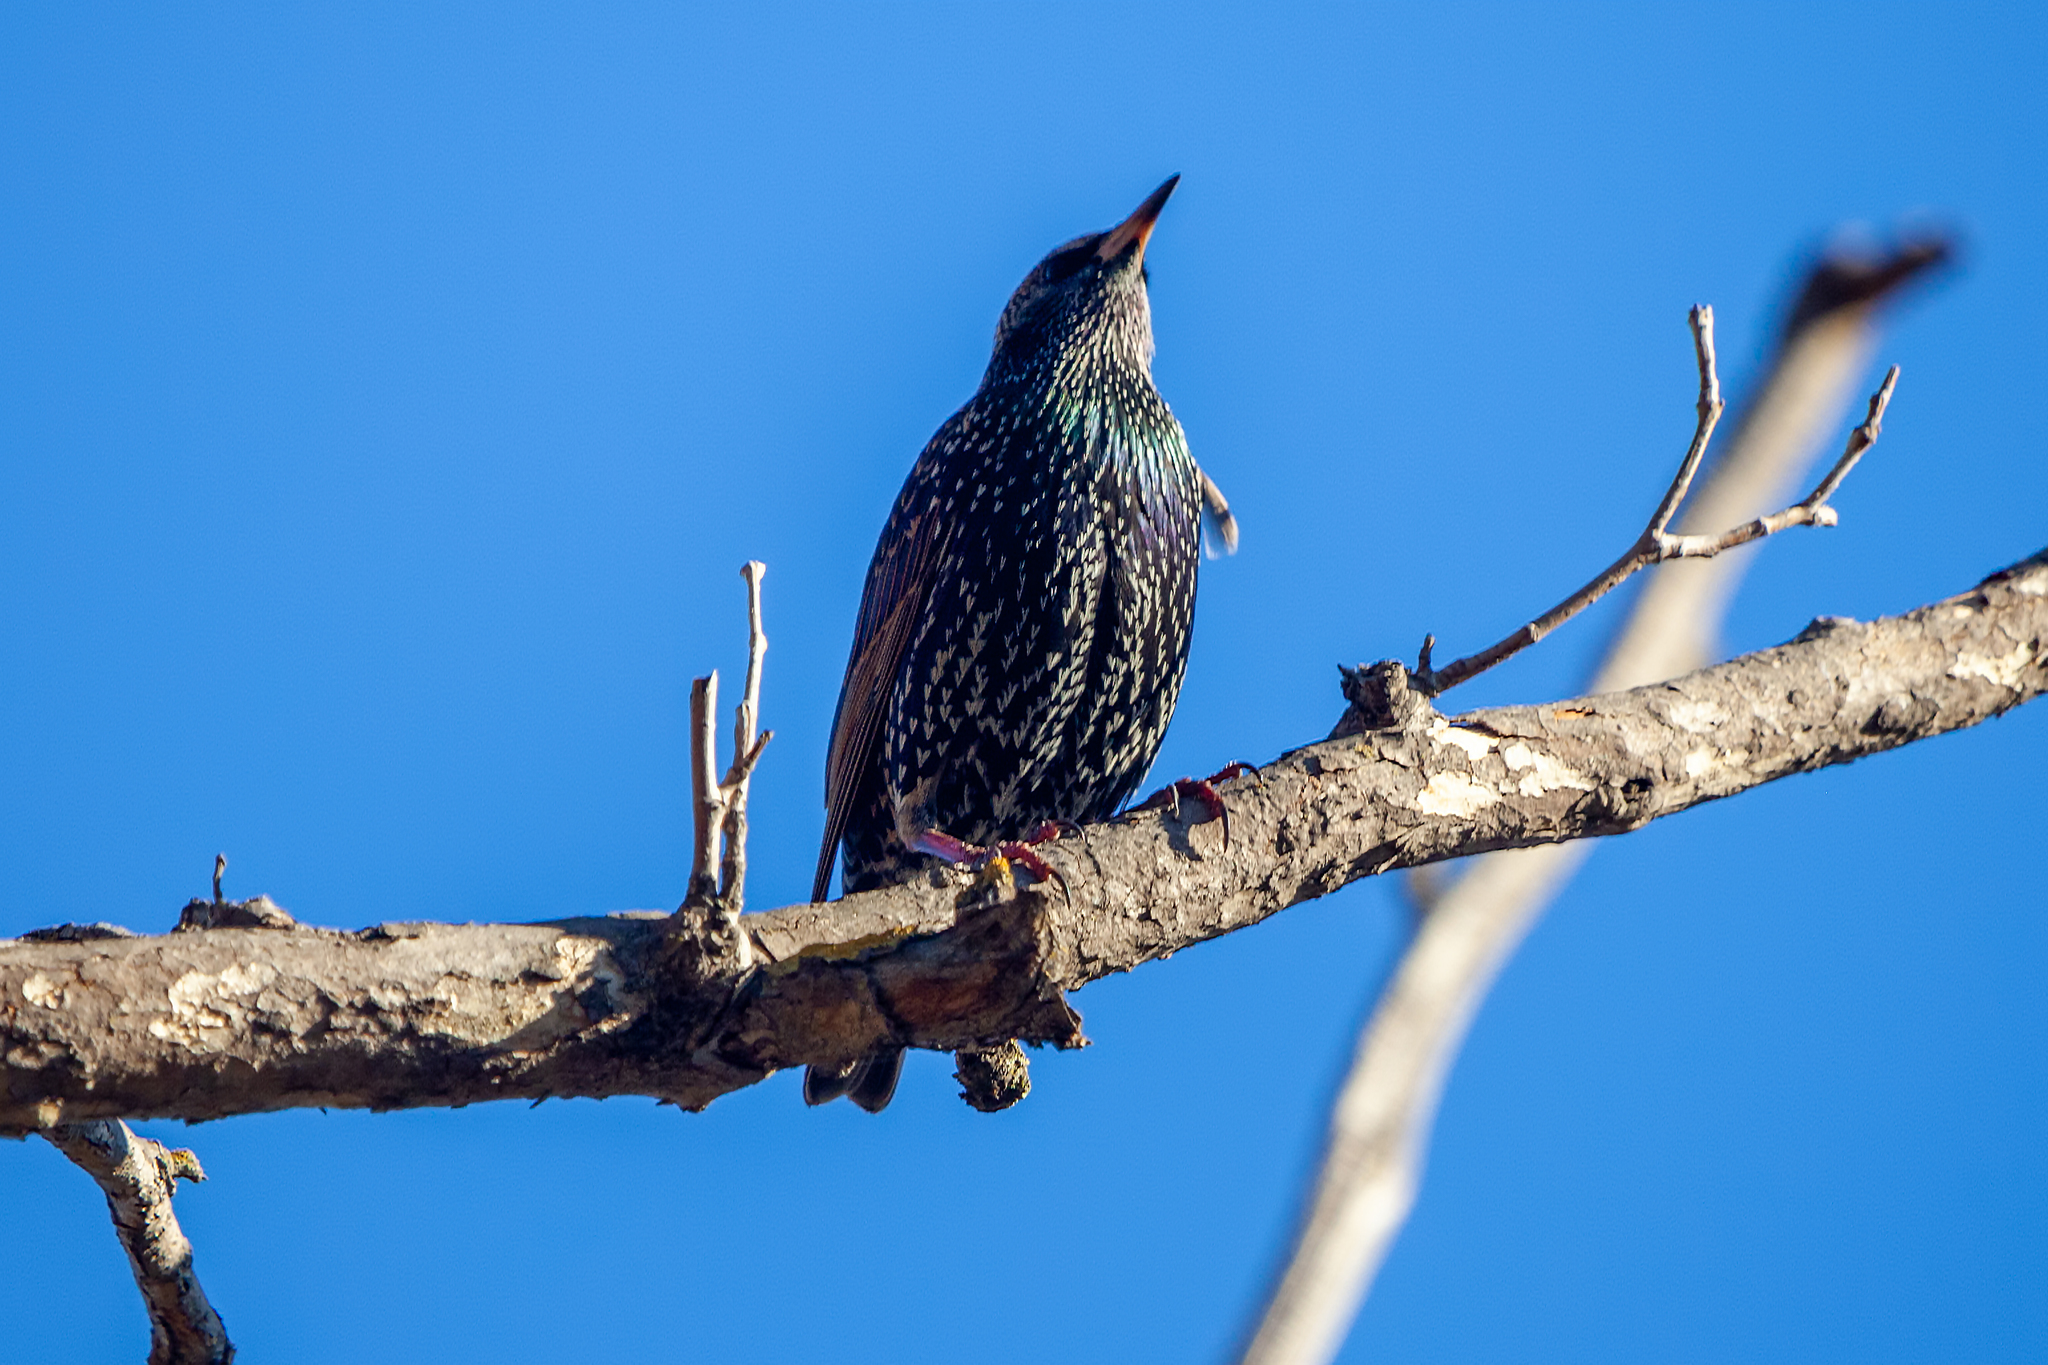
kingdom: Animalia
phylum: Chordata
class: Aves
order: Passeriformes
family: Sturnidae
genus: Sturnus
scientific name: Sturnus vulgaris
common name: Common starling
